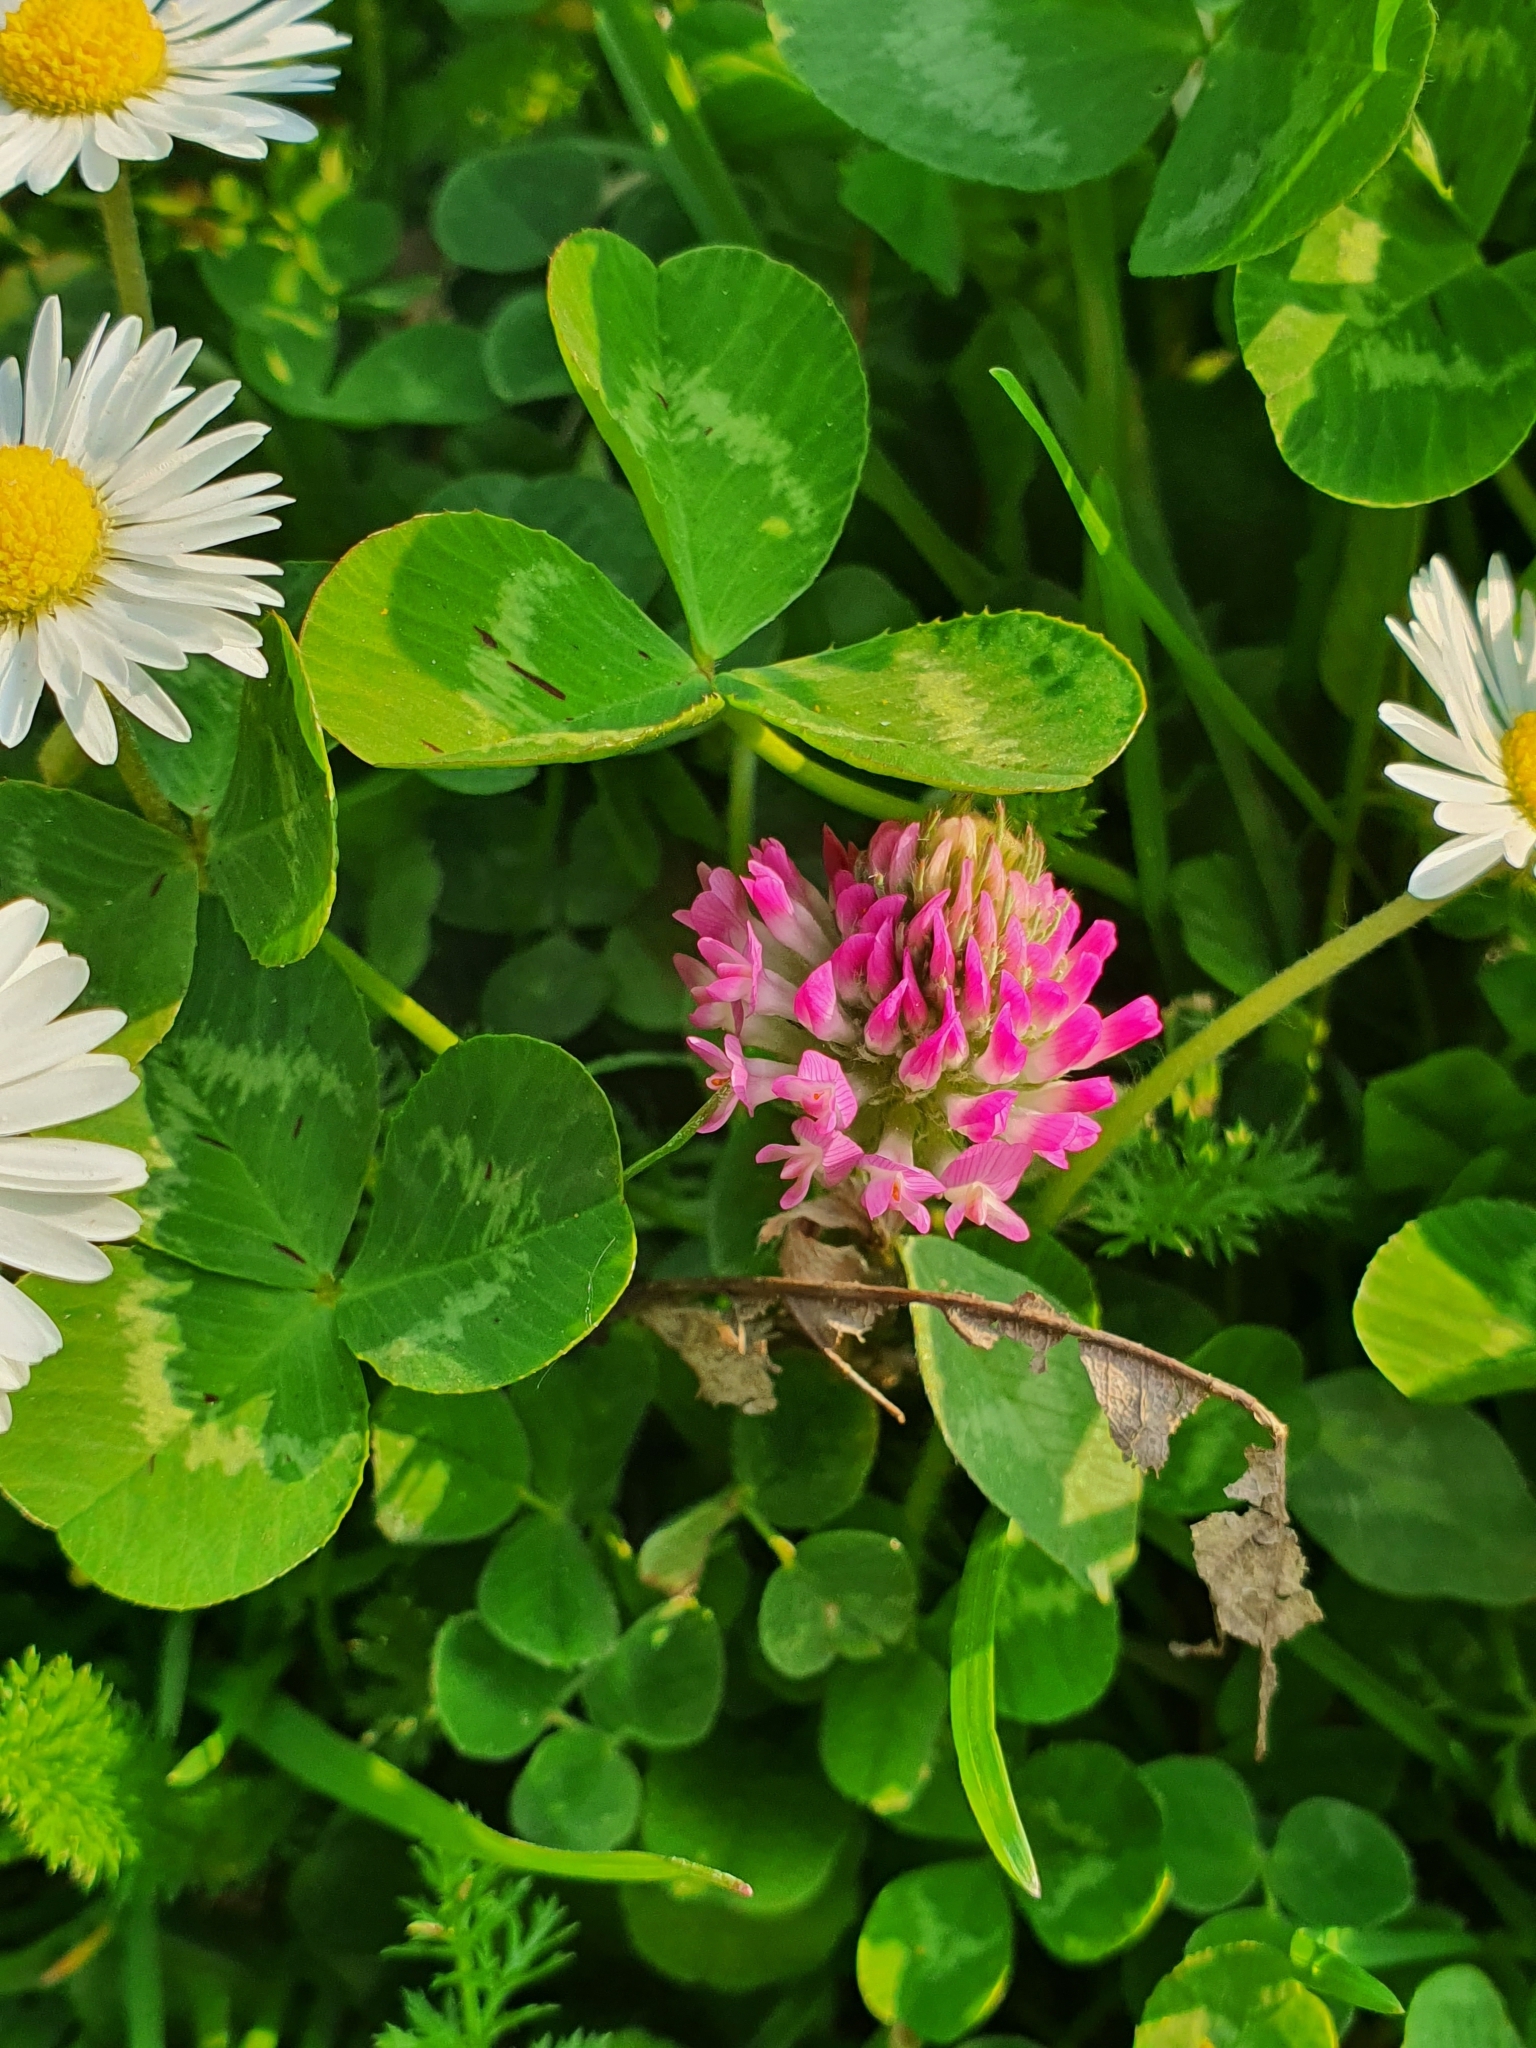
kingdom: Plantae
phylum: Tracheophyta
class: Magnoliopsida
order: Fabales
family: Fabaceae
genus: Trifolium
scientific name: Trifolium pratense
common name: Red clover
